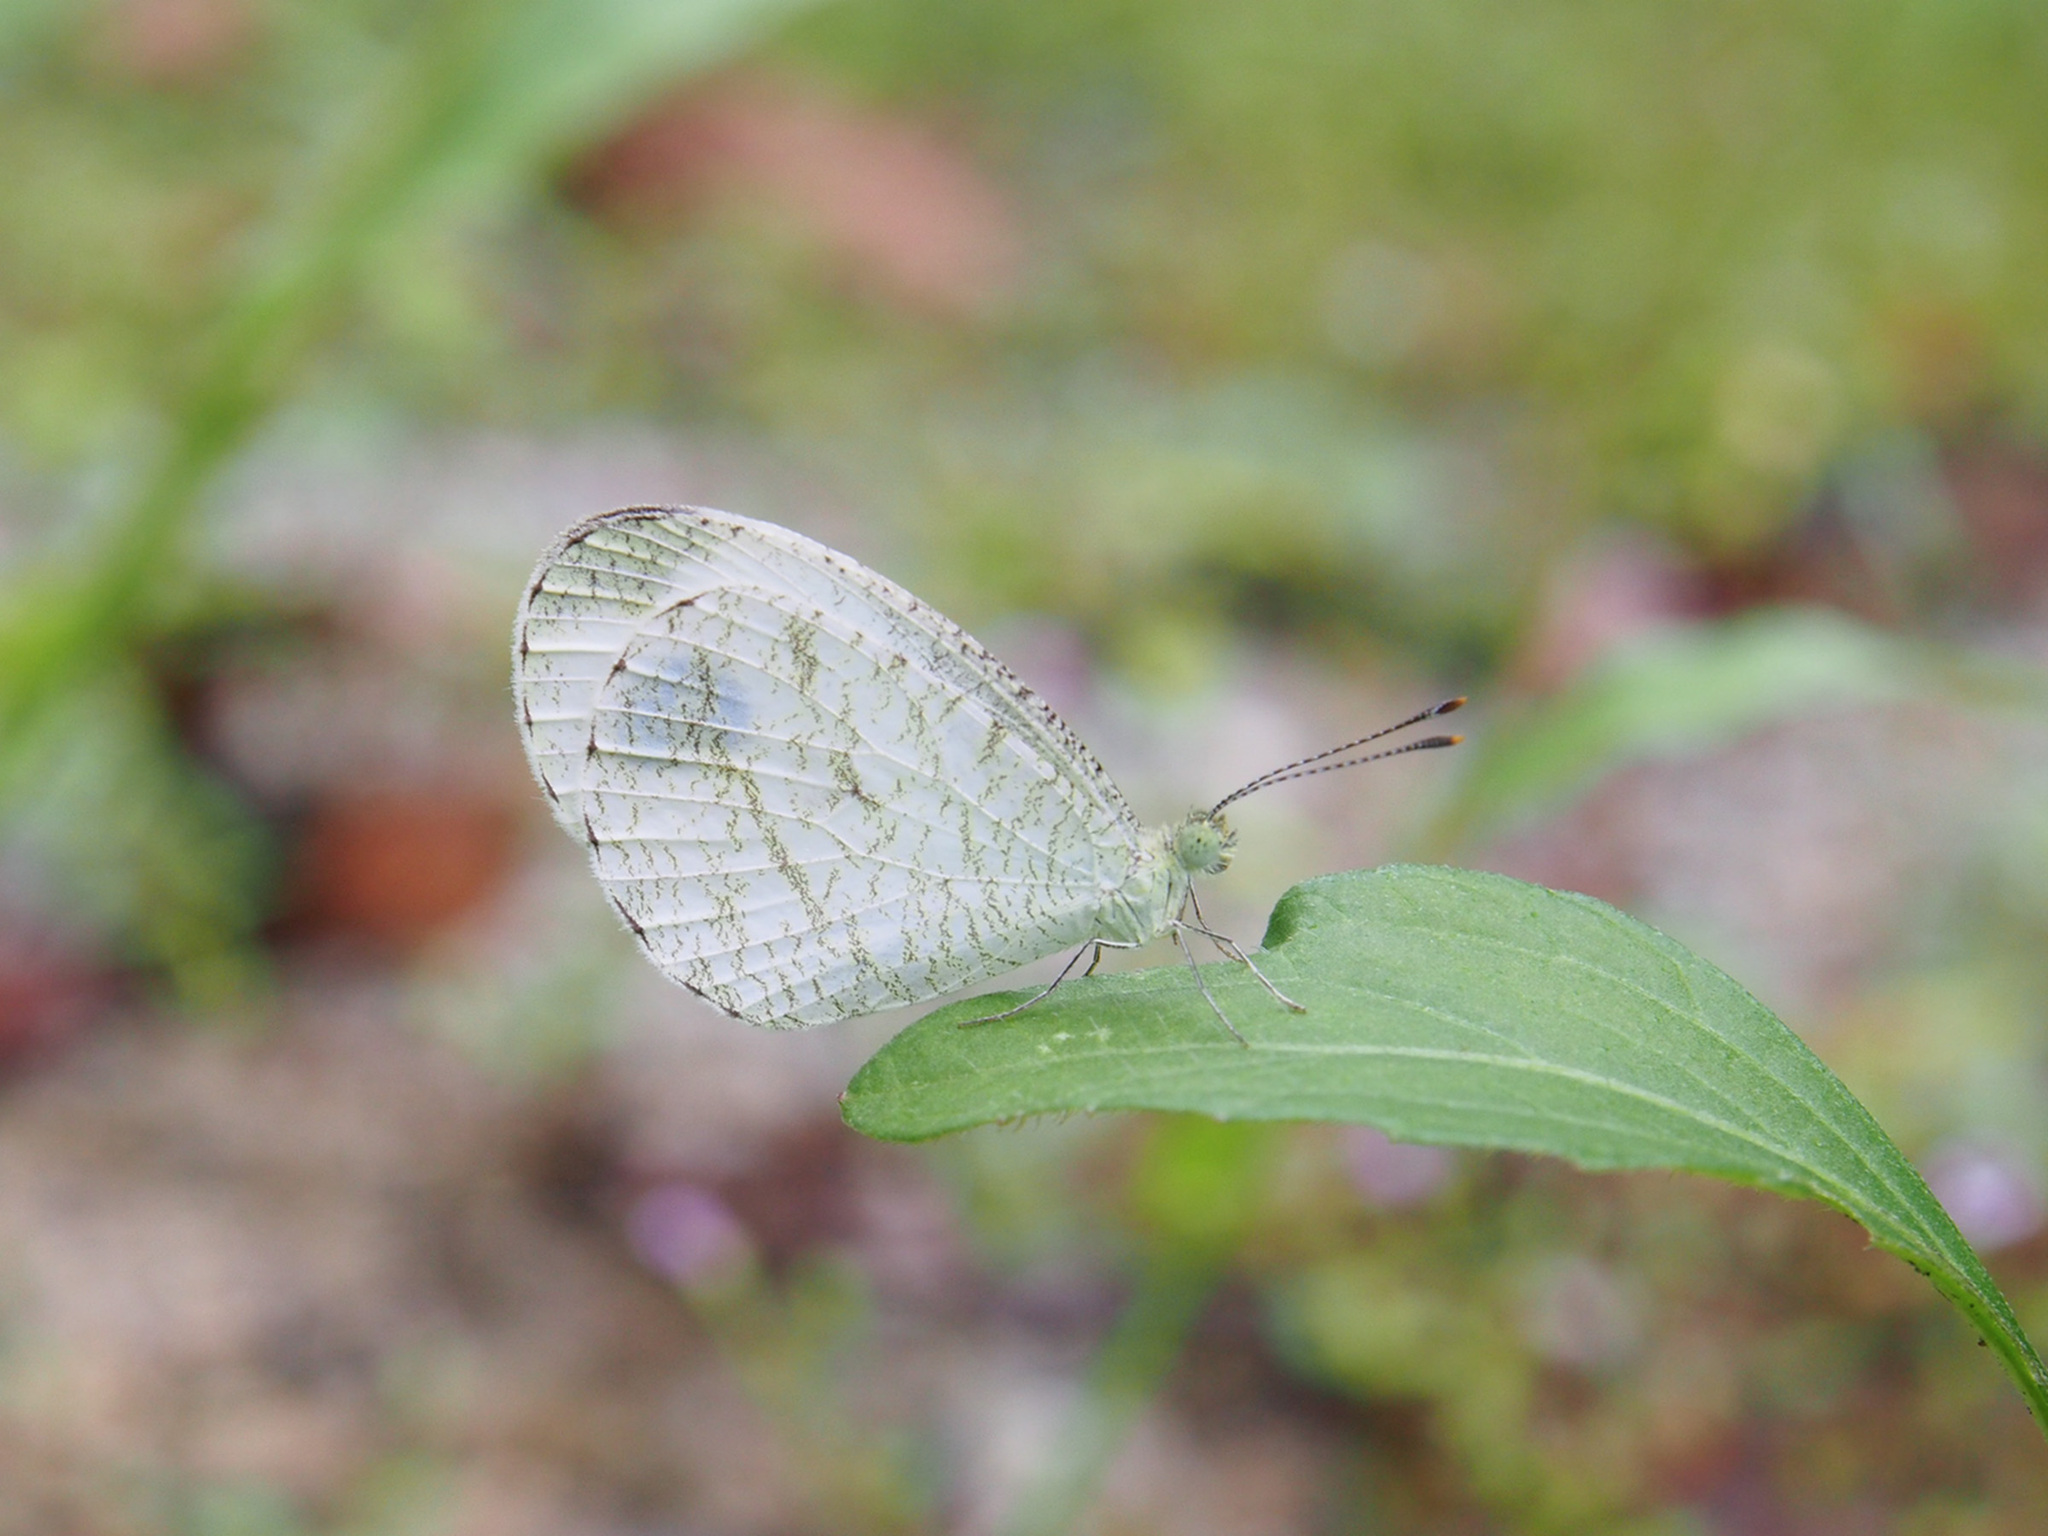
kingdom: Animalia
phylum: Arthropoda
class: Insecta
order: Lepidoptera
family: Pieridae
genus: Leptosia
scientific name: Leptosia nina
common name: Psyche
